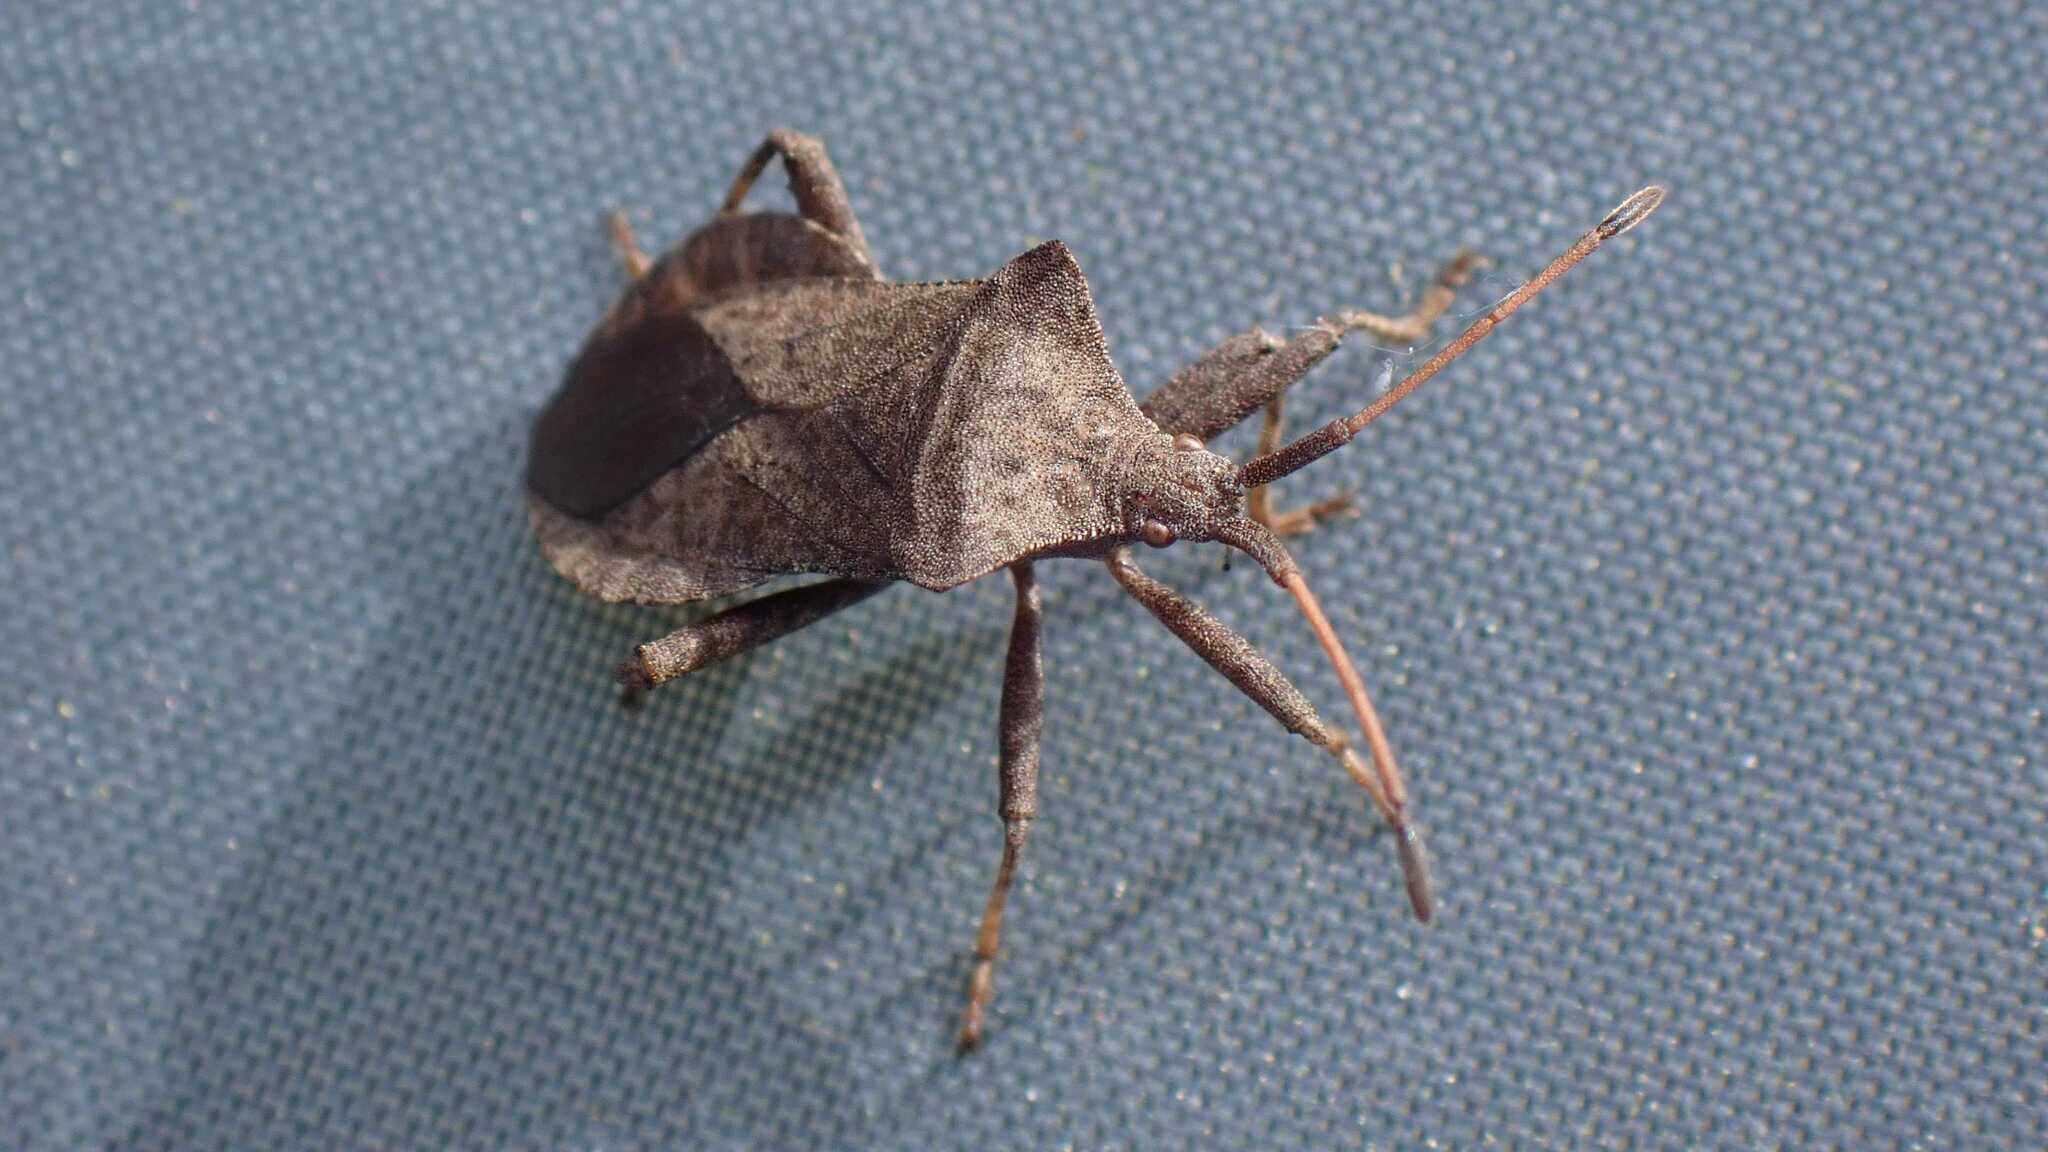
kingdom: Animalia
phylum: Arthropoda
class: Insecta
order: Hemiptera
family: Coreidae
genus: Coreus
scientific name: Coreus marginatus
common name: Dock bug
